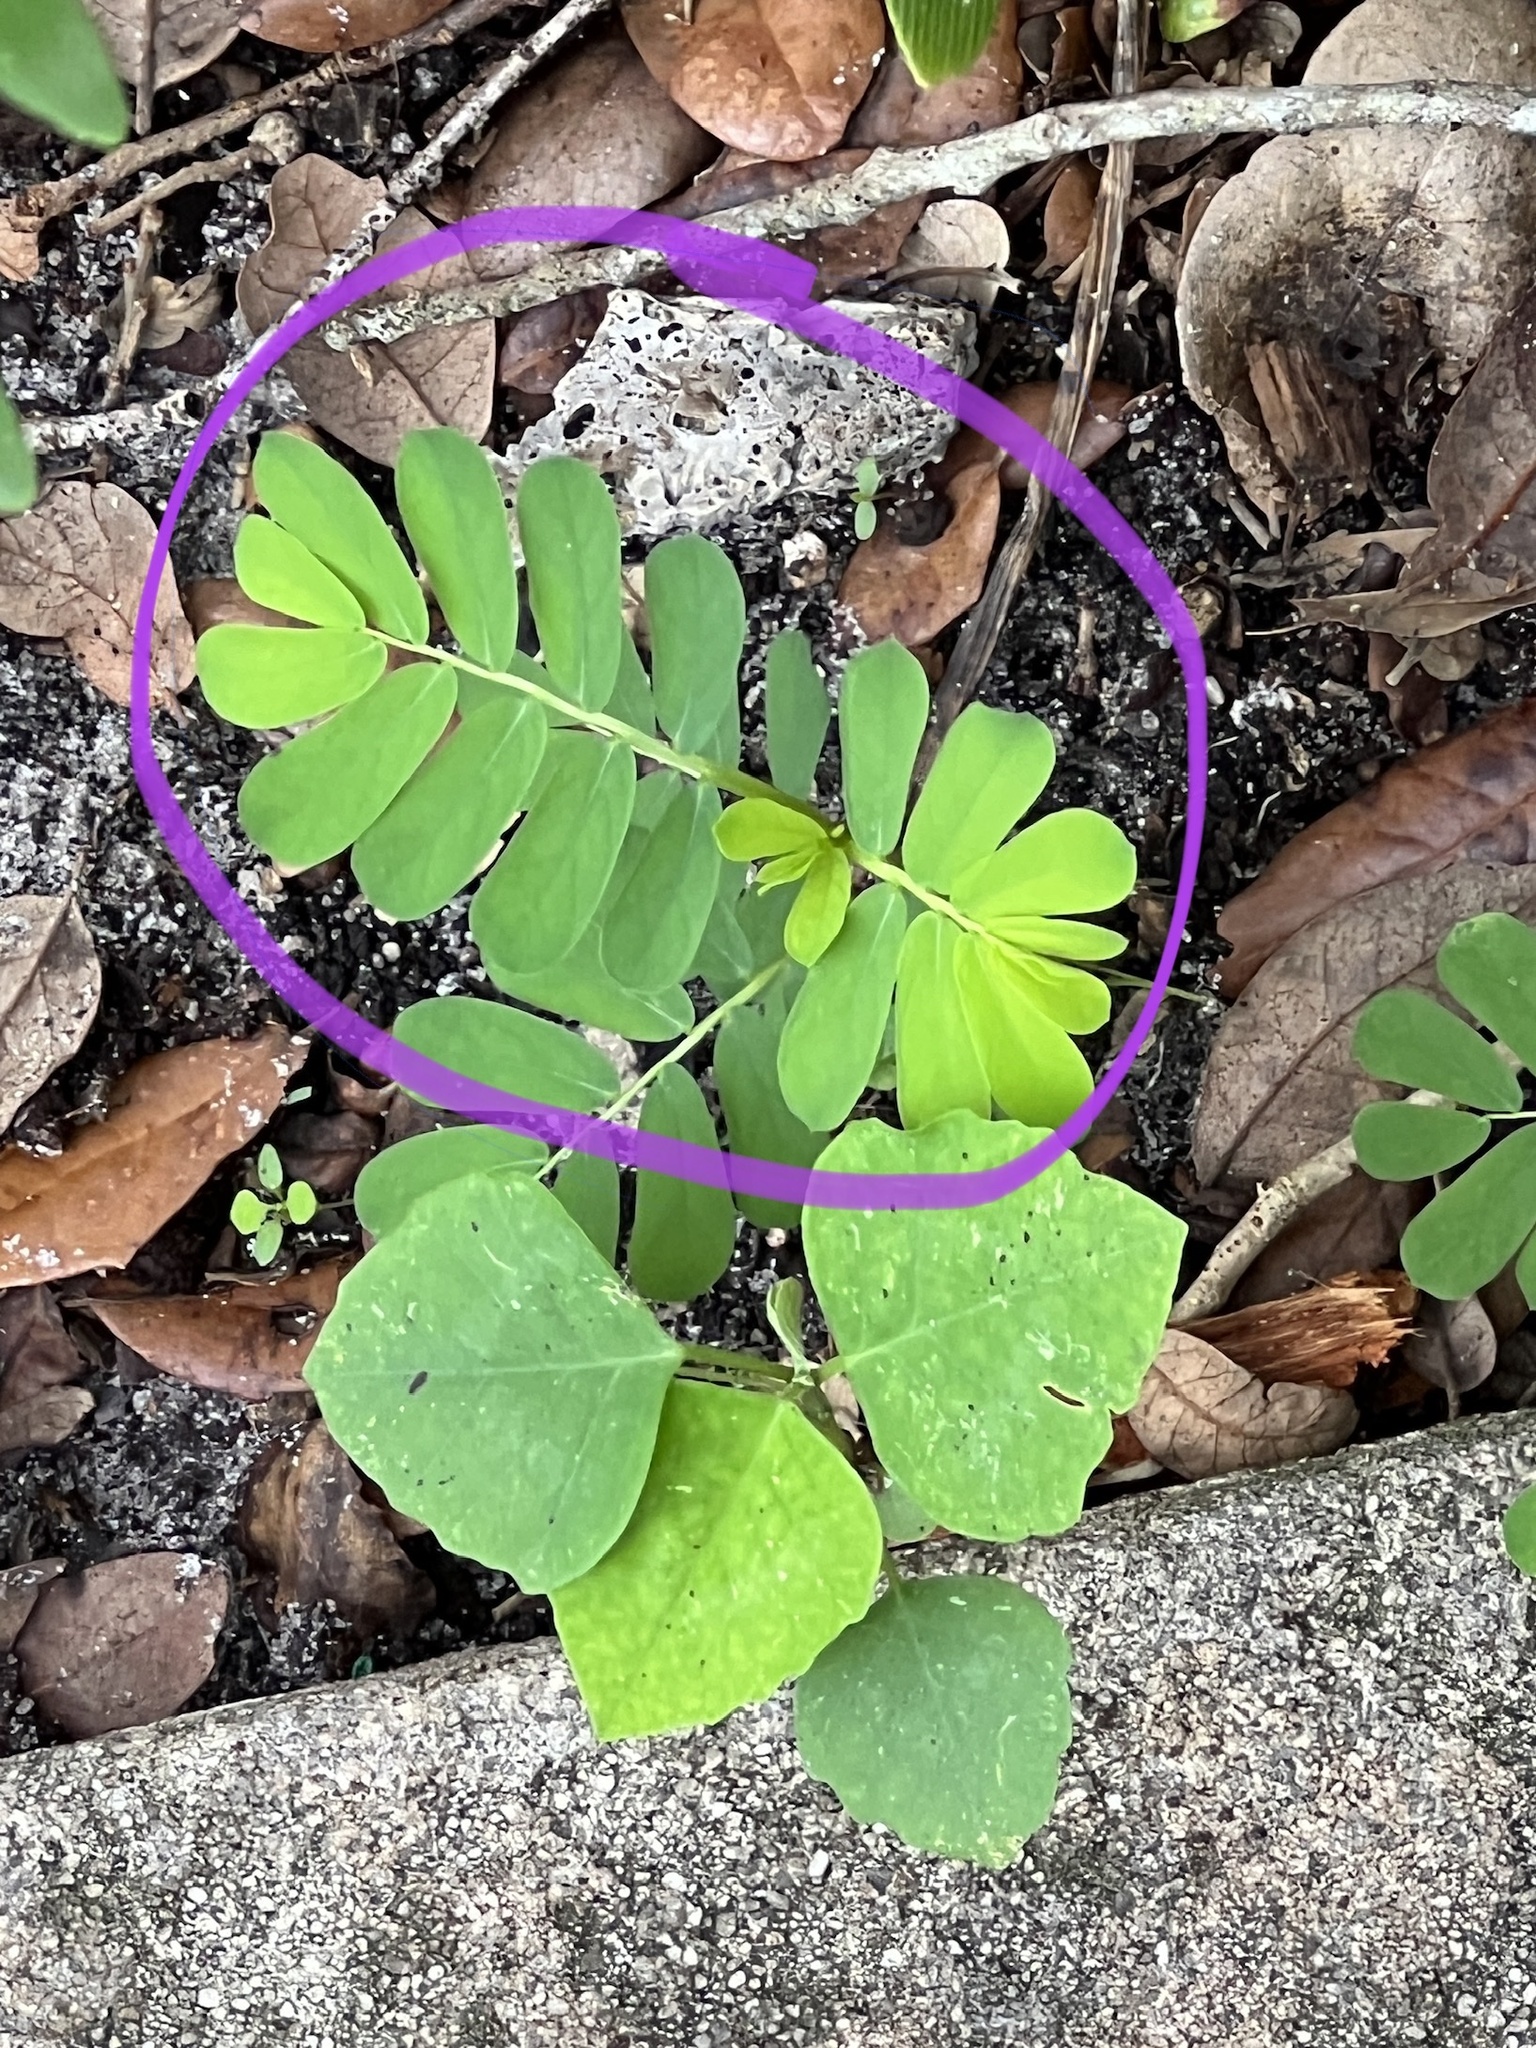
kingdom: Plantae
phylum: Tracheophyta
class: Magnoliopsida
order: Malpighiales
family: Phyllanthaceae
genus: Phyllanthus
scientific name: Phyllanthus urinaria
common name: Chamber bitter
